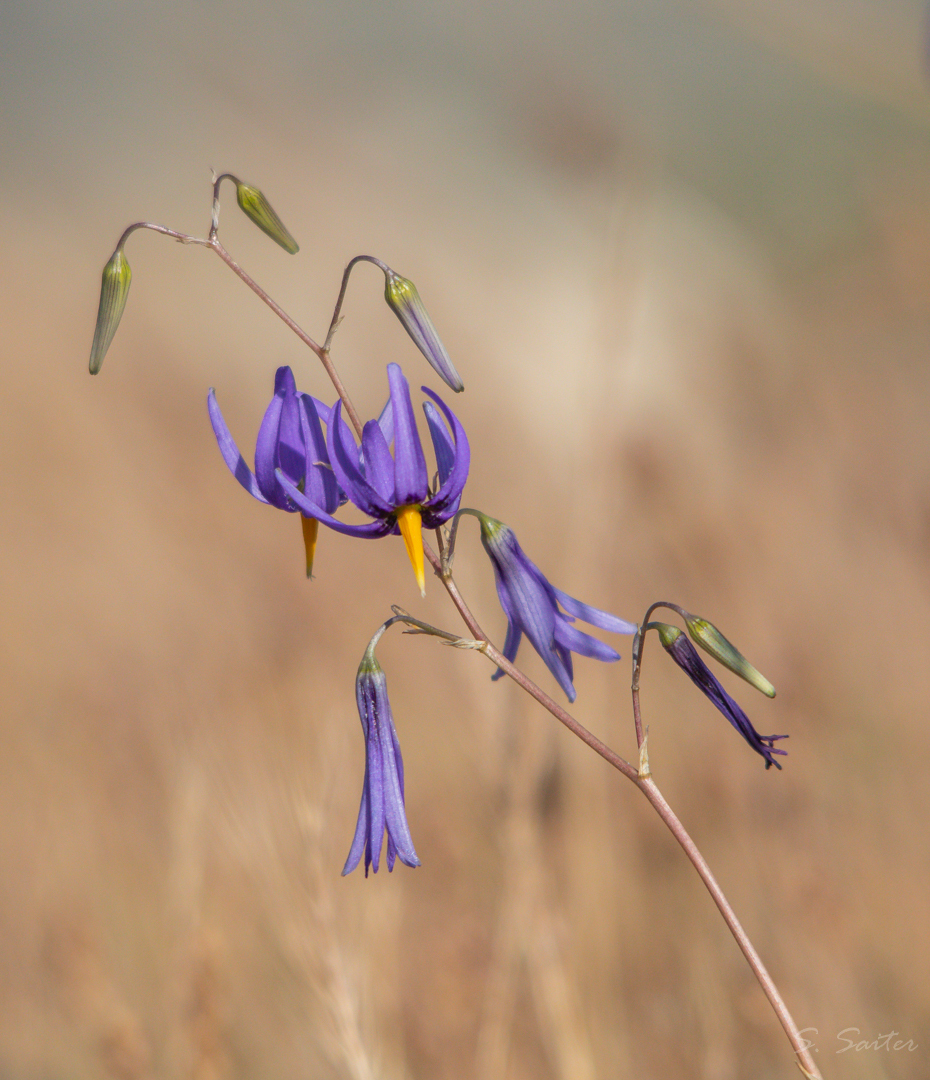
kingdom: Plantae
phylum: Tracheophyta
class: Liliopsida
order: Asparagales
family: Tecophilaeaceae
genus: Conanthera
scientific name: Conanthera bifolia
